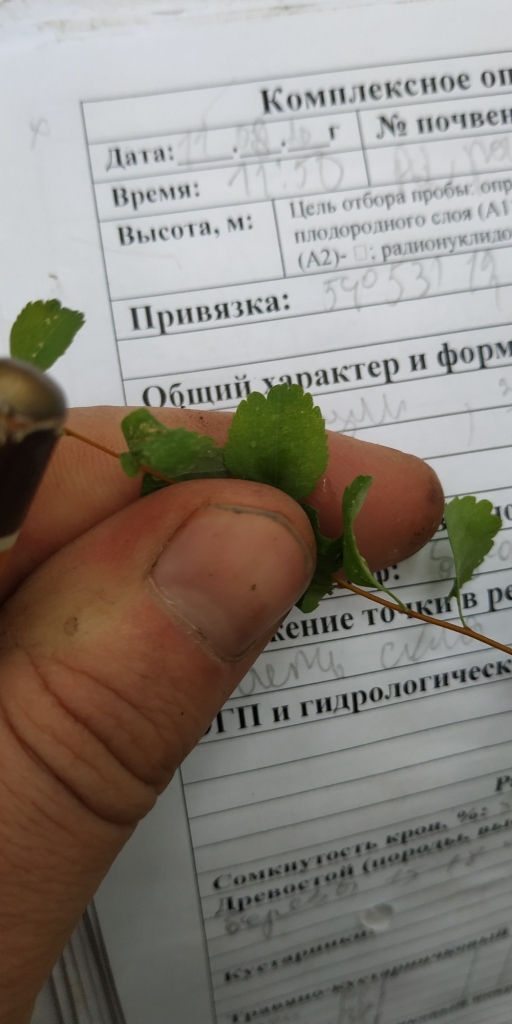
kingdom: Plantae
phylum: Tracheophyta
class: Magnoliopsida
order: Rosales
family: Rosaceae
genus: Spiraea
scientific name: Spiraea crenata
